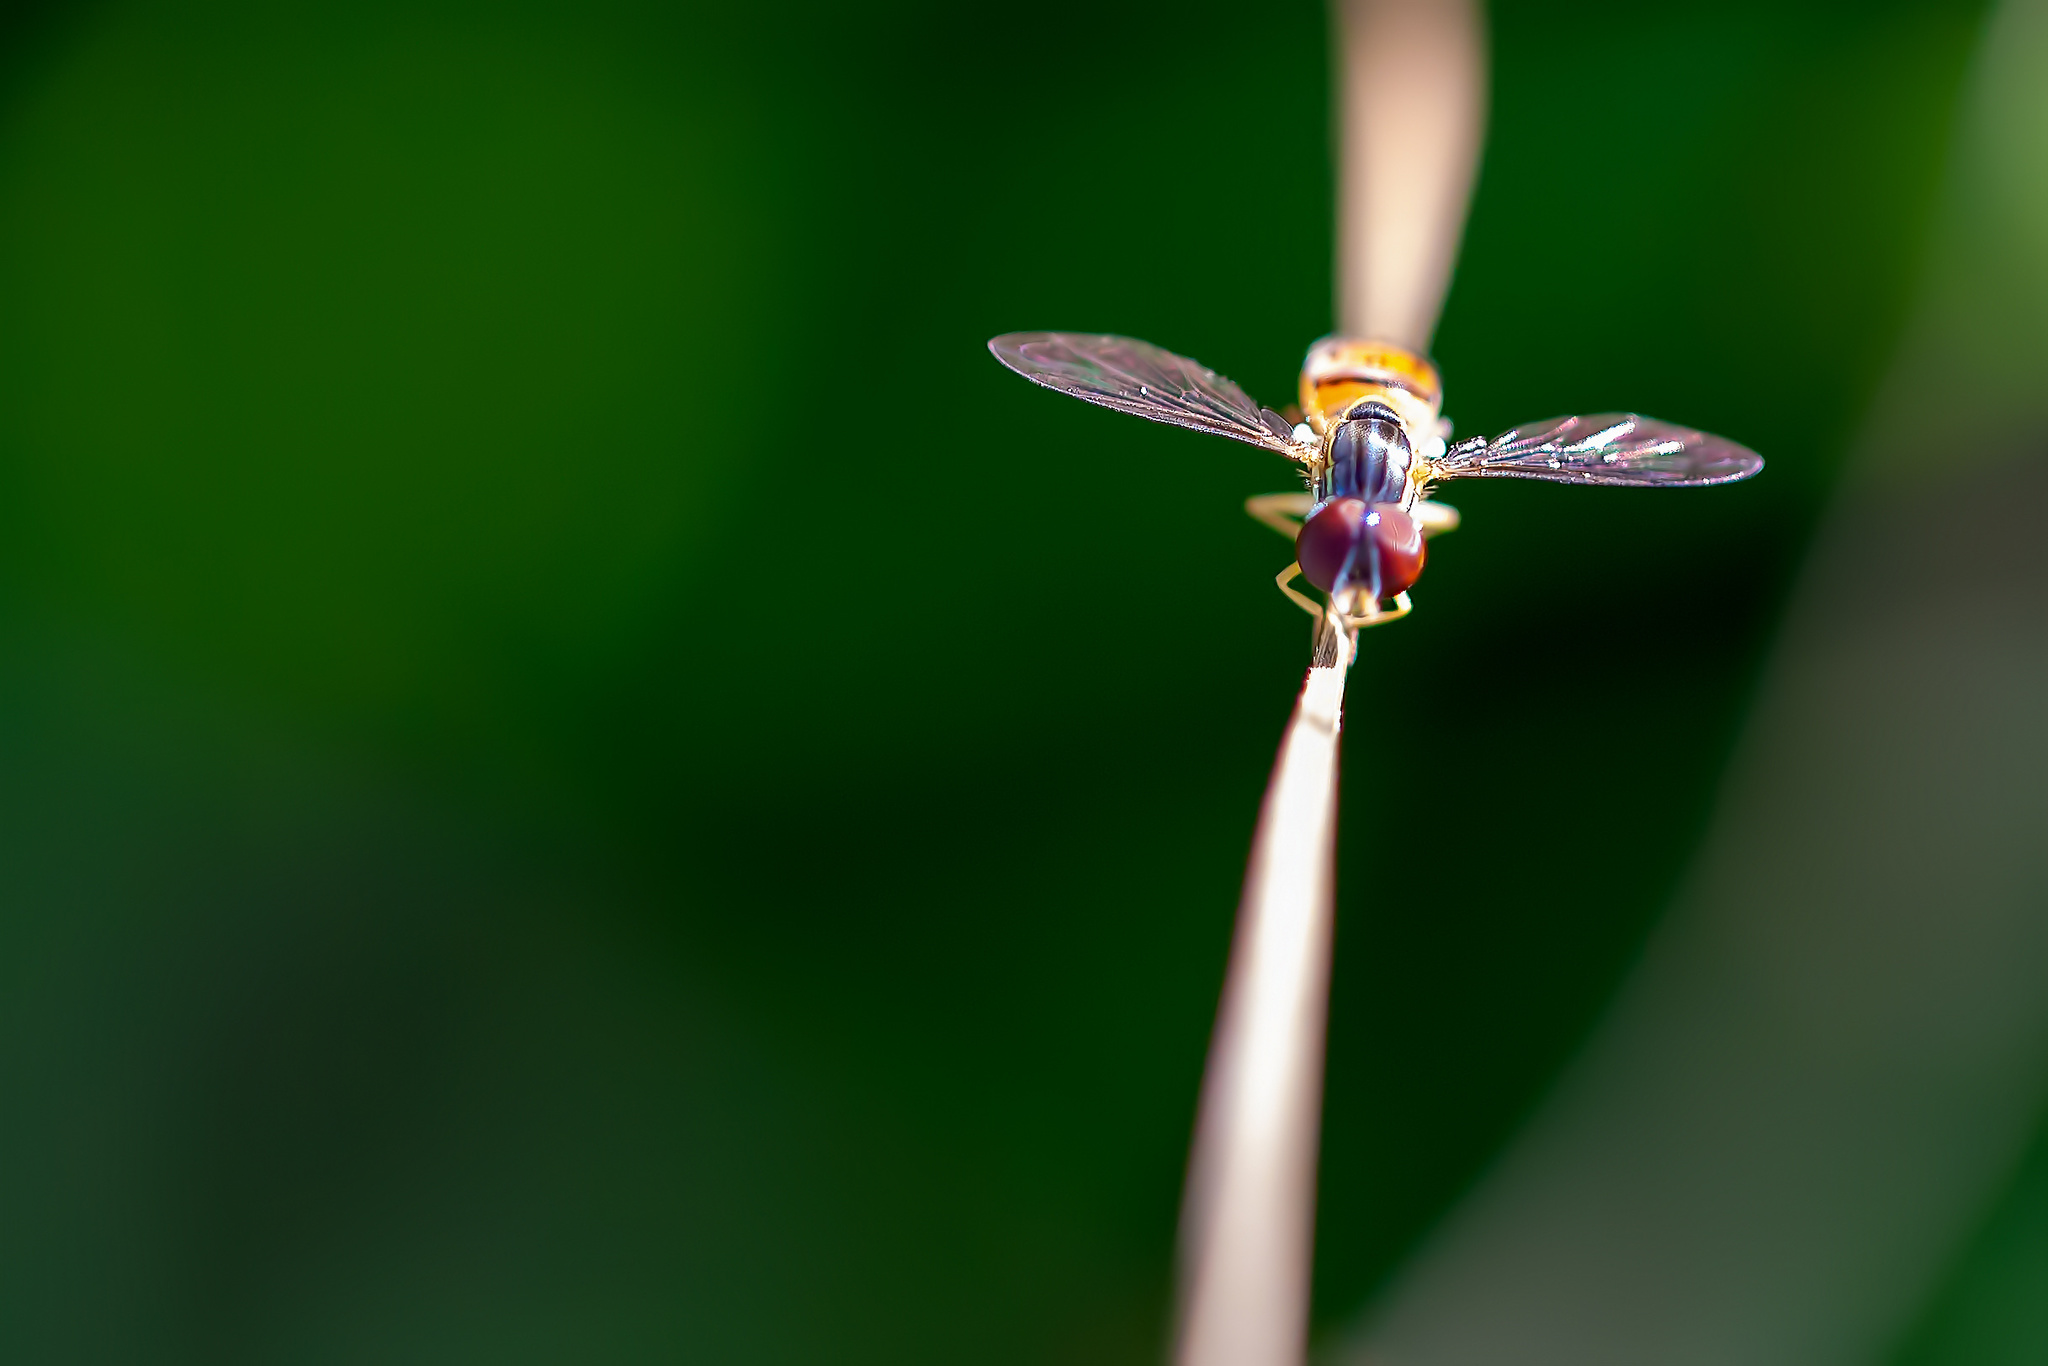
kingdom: Animalia
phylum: Arthropoda
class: Insecta
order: Diptera
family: Syrphidae
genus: Toxomerus
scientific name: Toxomerus boscii
